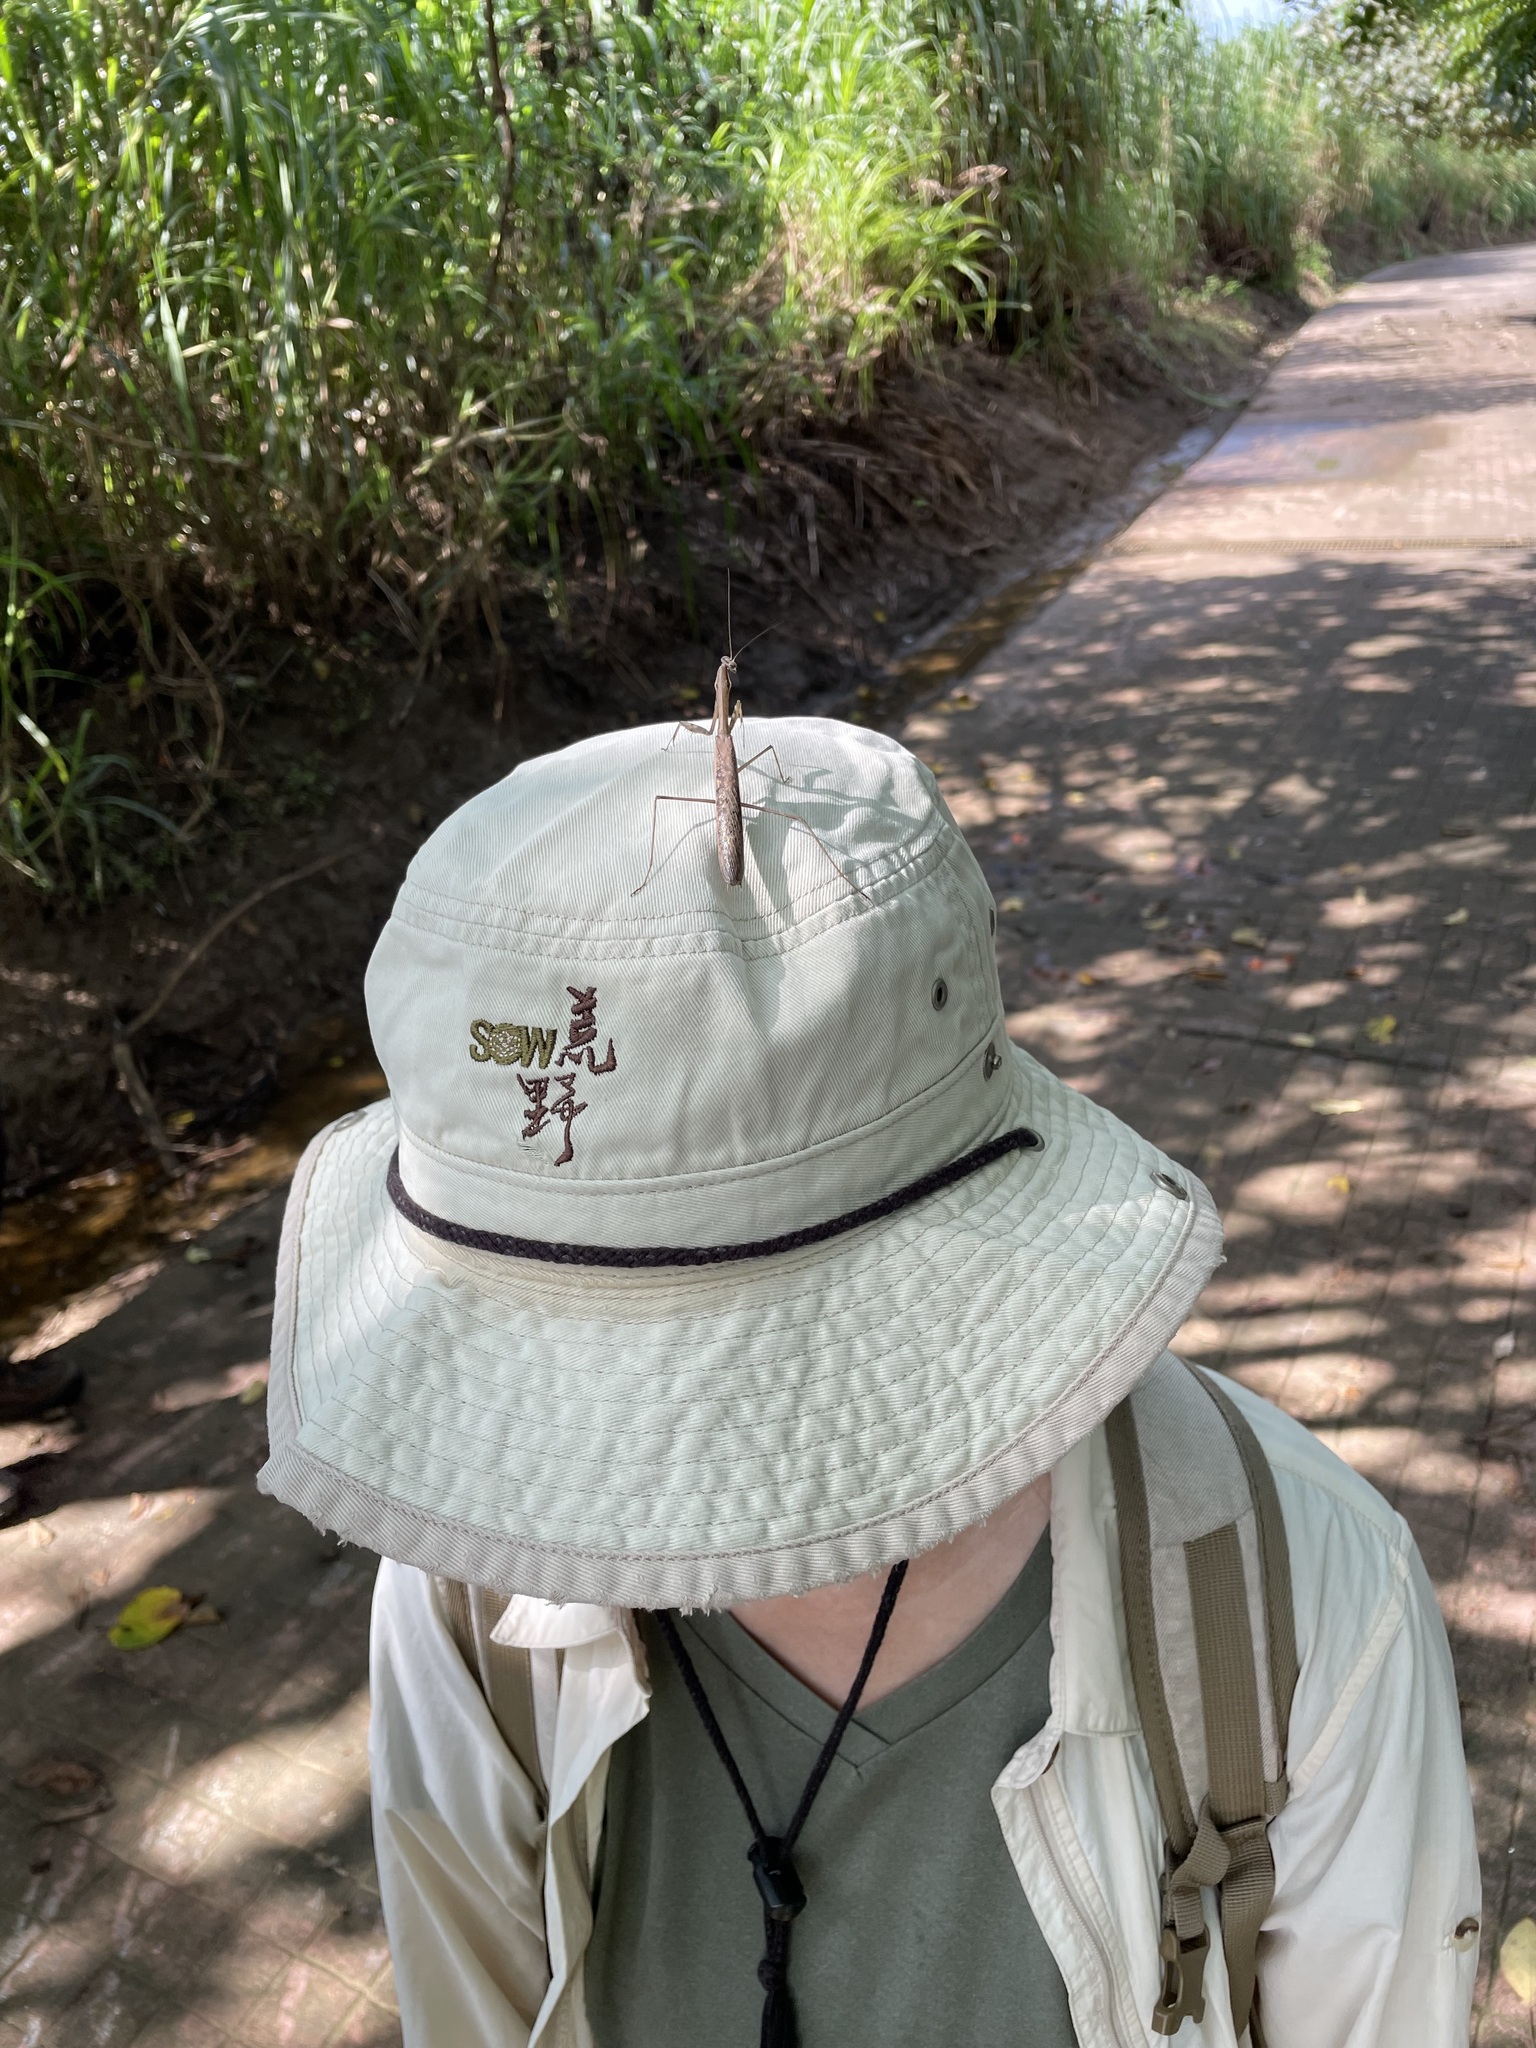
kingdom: Animalia
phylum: Arthropoda
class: Insecta
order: Mantodea
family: Mantidae
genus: Statilia
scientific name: Statilia maculata
